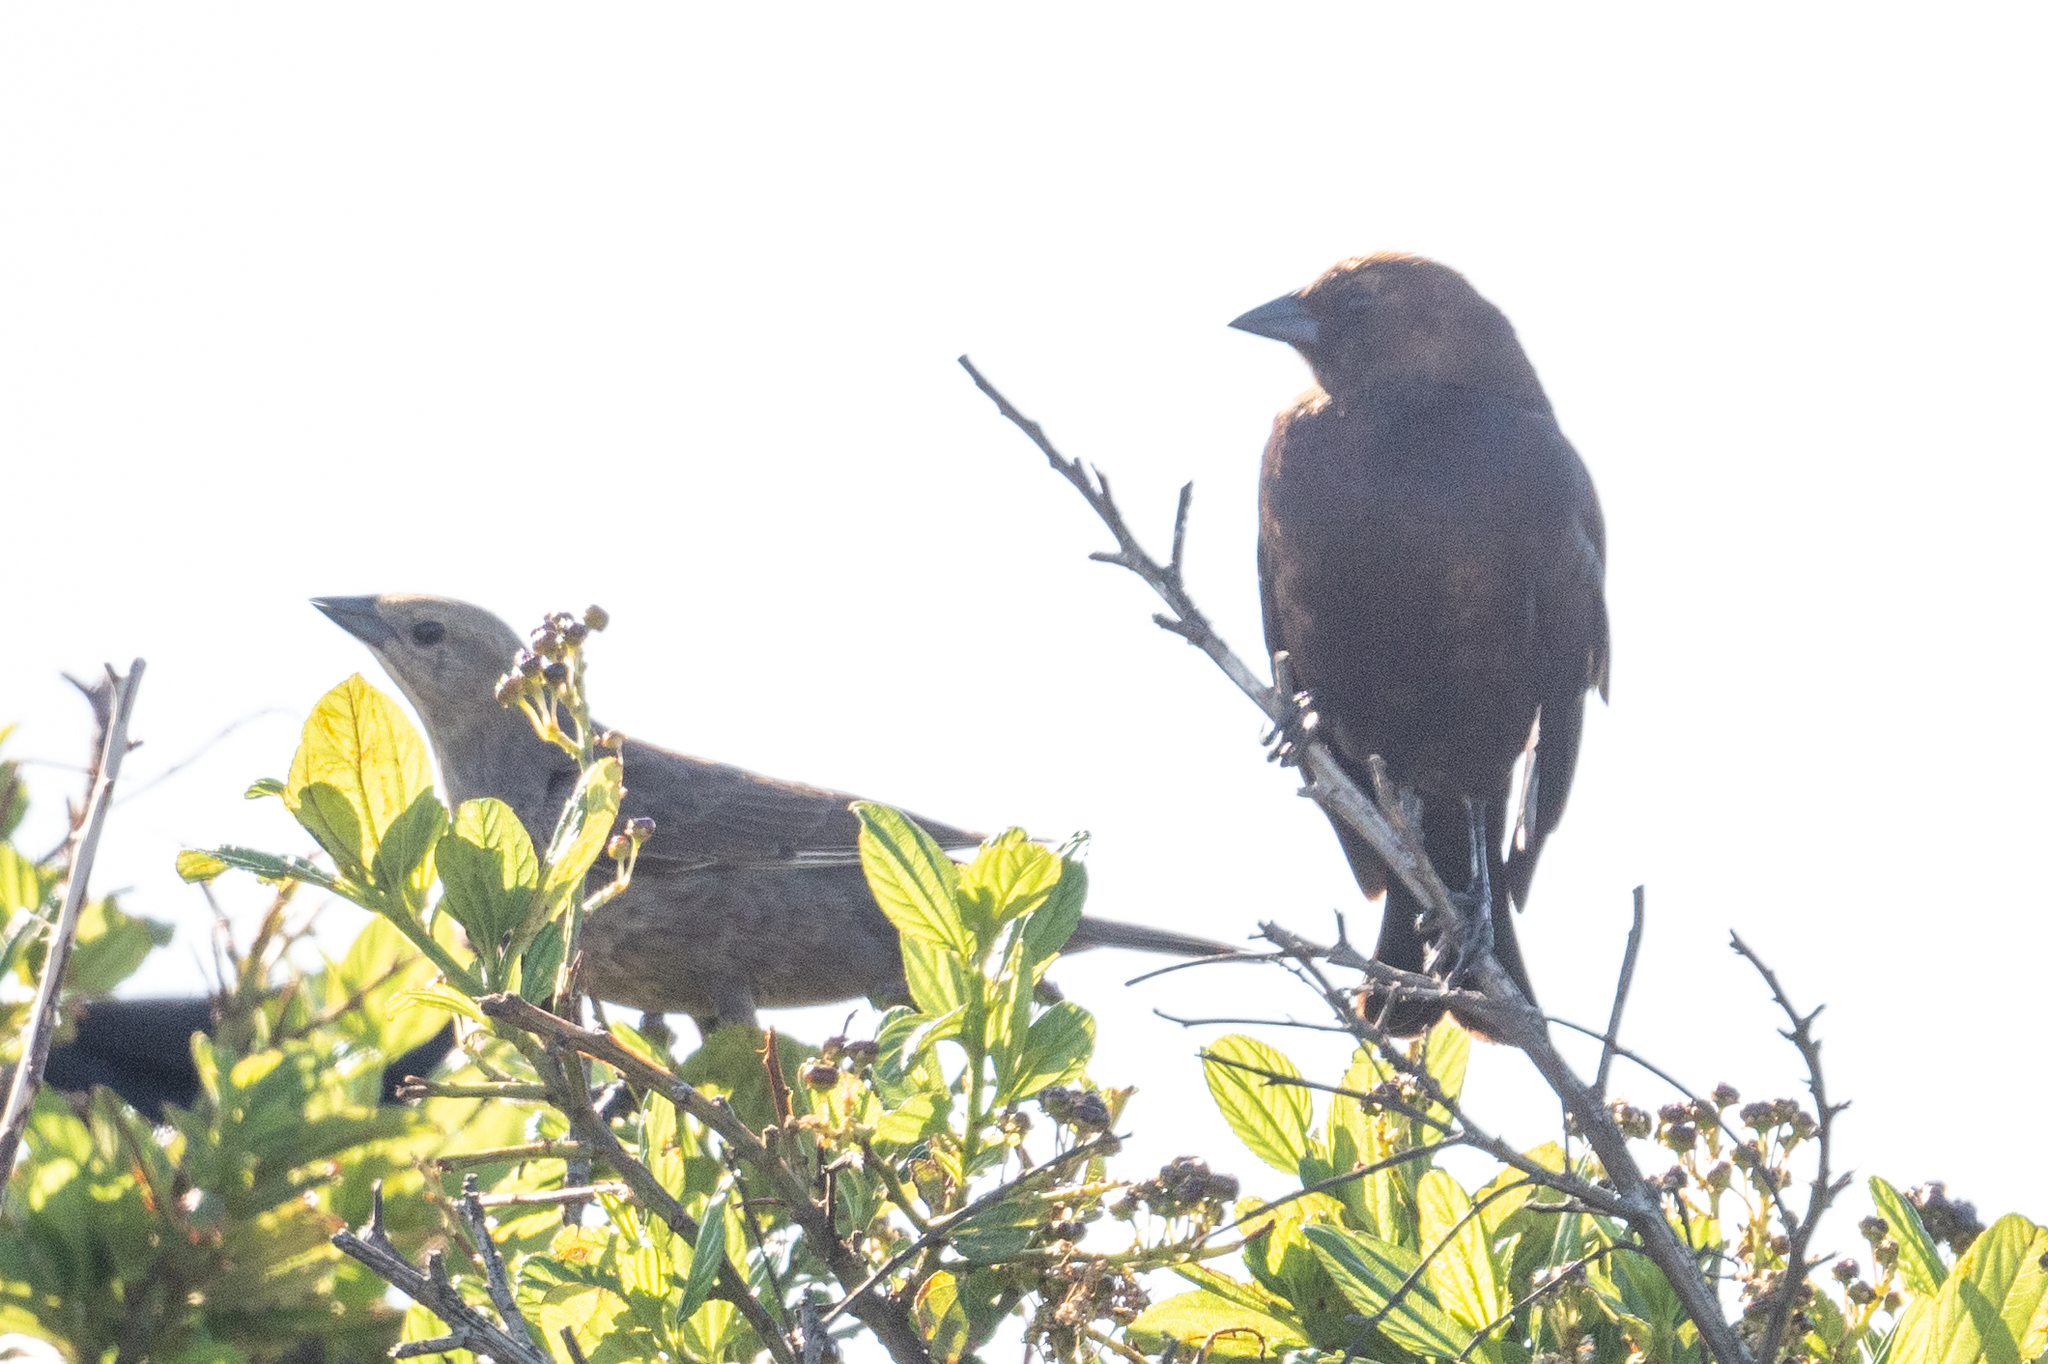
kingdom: Animalia
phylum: Chordata
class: Aves
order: Passeriformes
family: Icteridae
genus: Molothrus
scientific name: Molothrus ater
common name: Brown-headed cowbird
